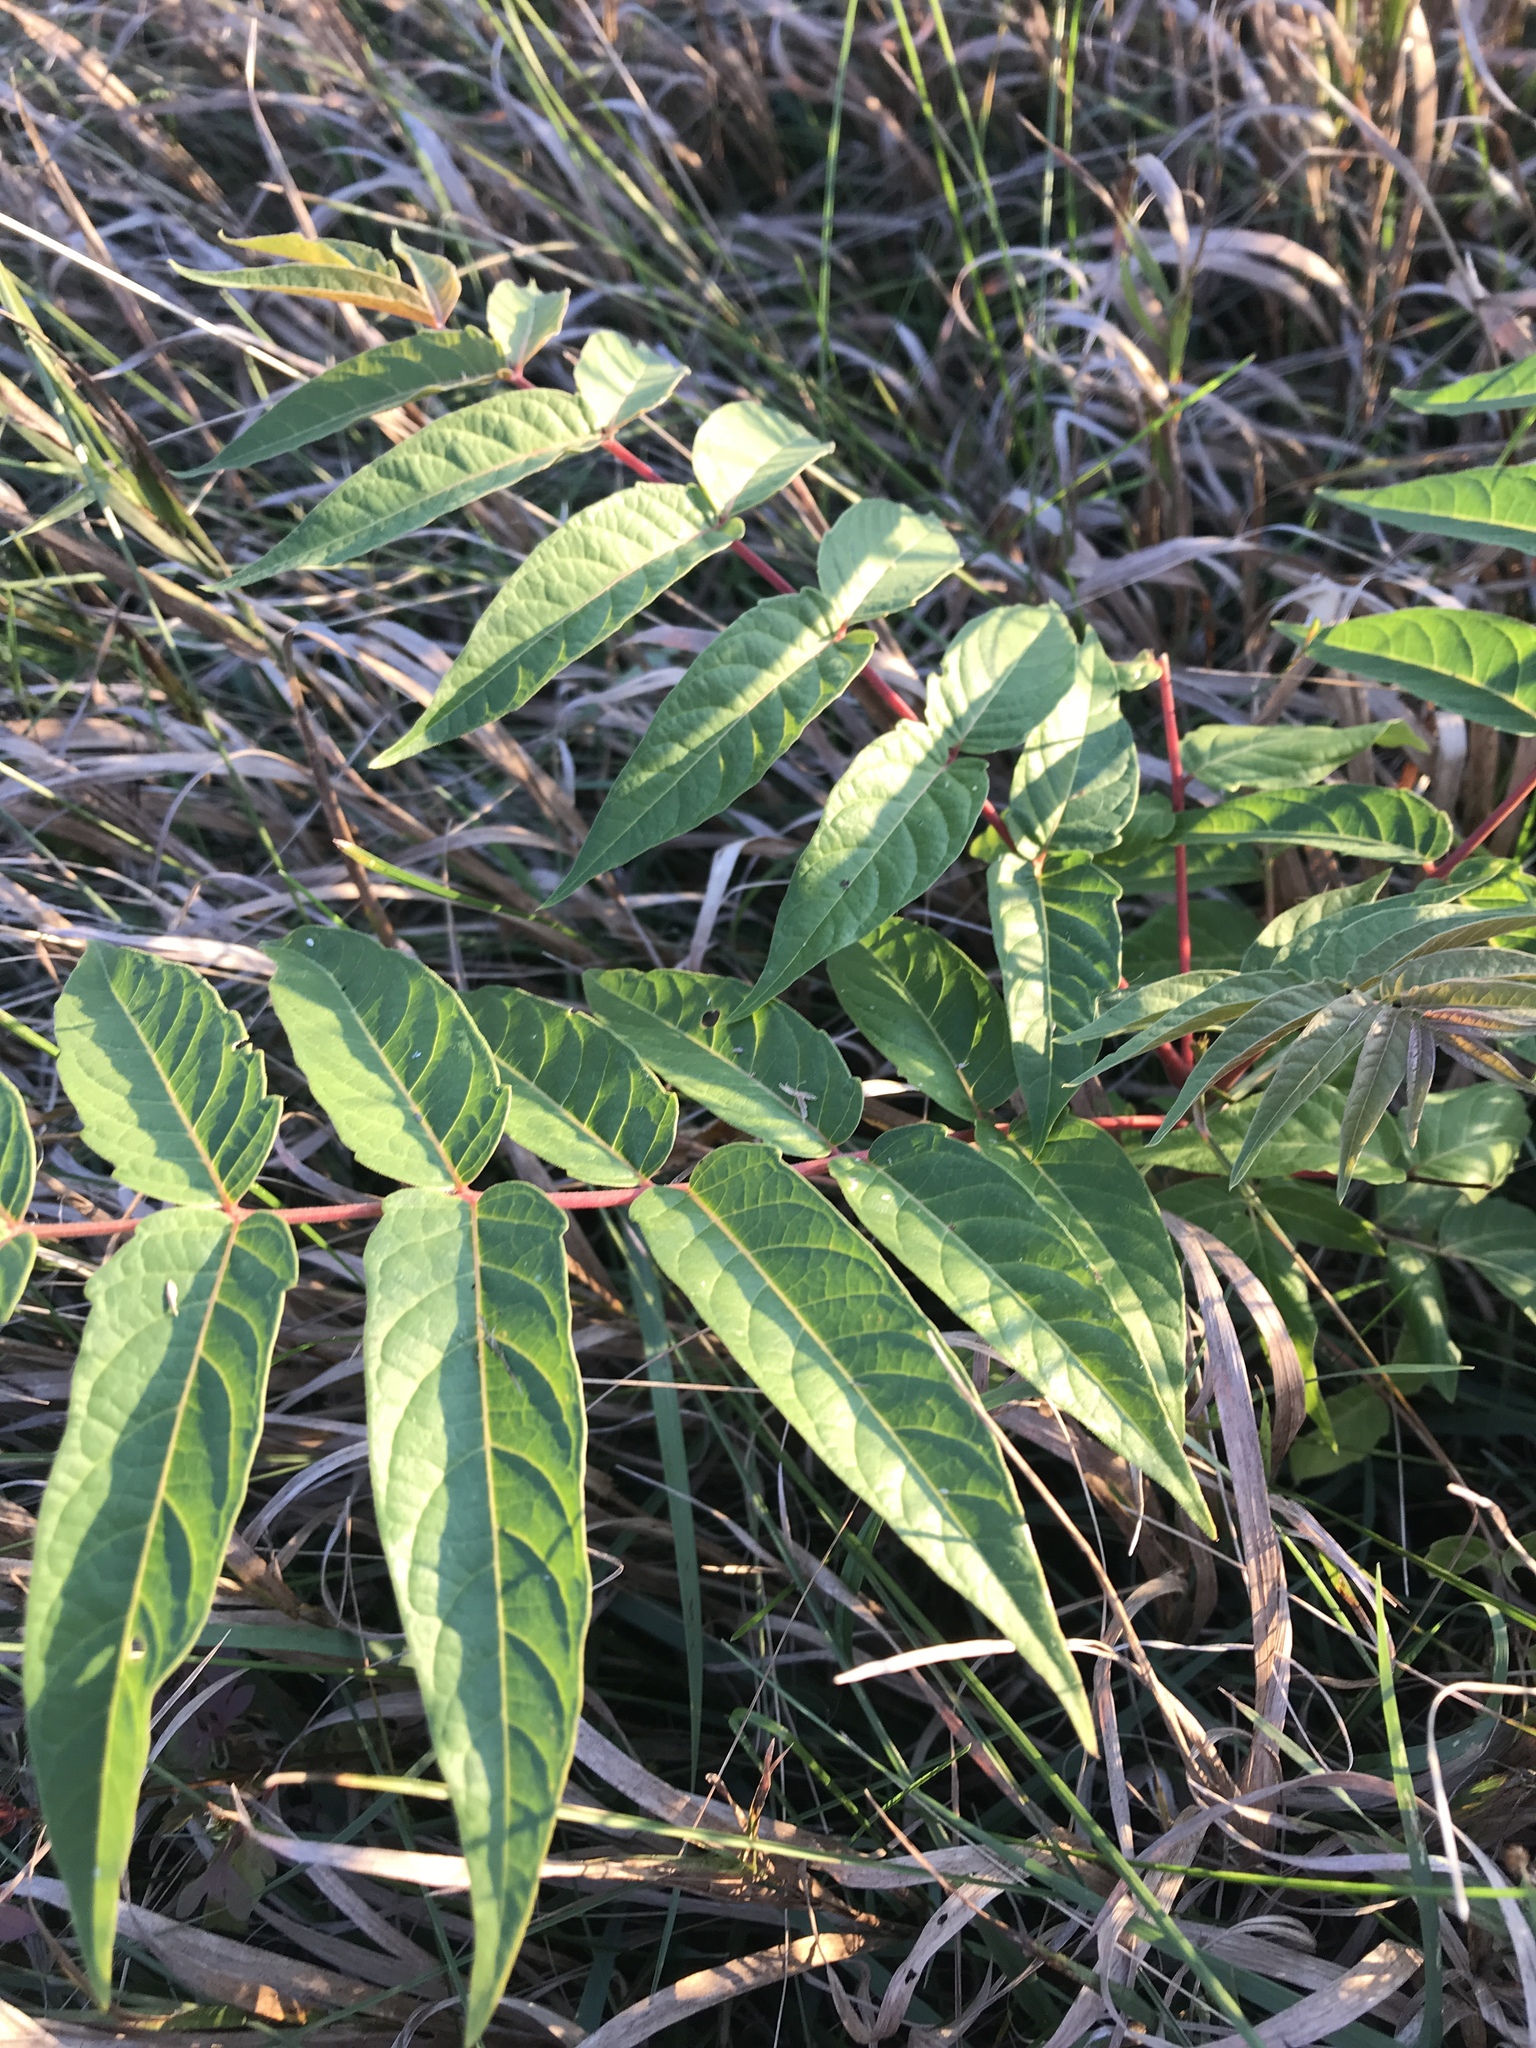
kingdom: Plantae
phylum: Tracheophyta
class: Magnoliopsida
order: Sapindales
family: Simaroubaceae
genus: Ailanthus
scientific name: Ailanthus altissima
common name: Tree-of-heaven
